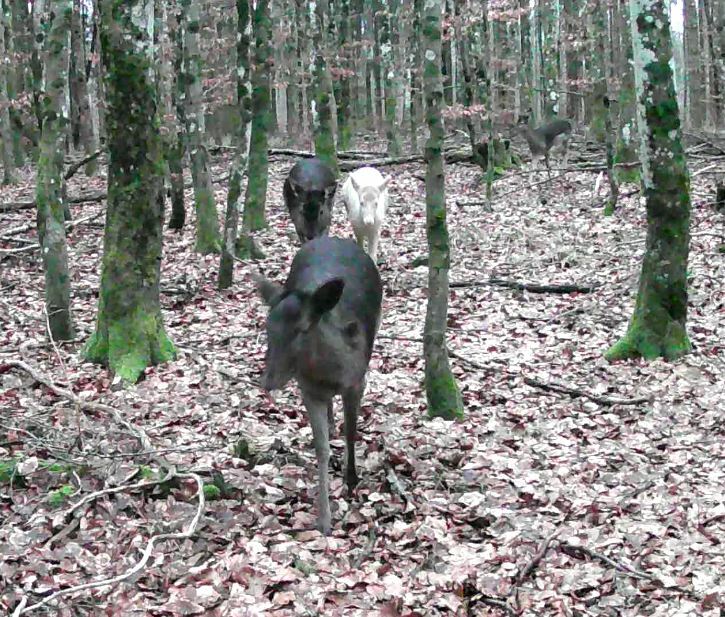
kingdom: Animalia
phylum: Chordata
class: Mammalia
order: Artiodactyla
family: Cervidae
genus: Dama
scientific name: Dama dama
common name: Fallow deer
